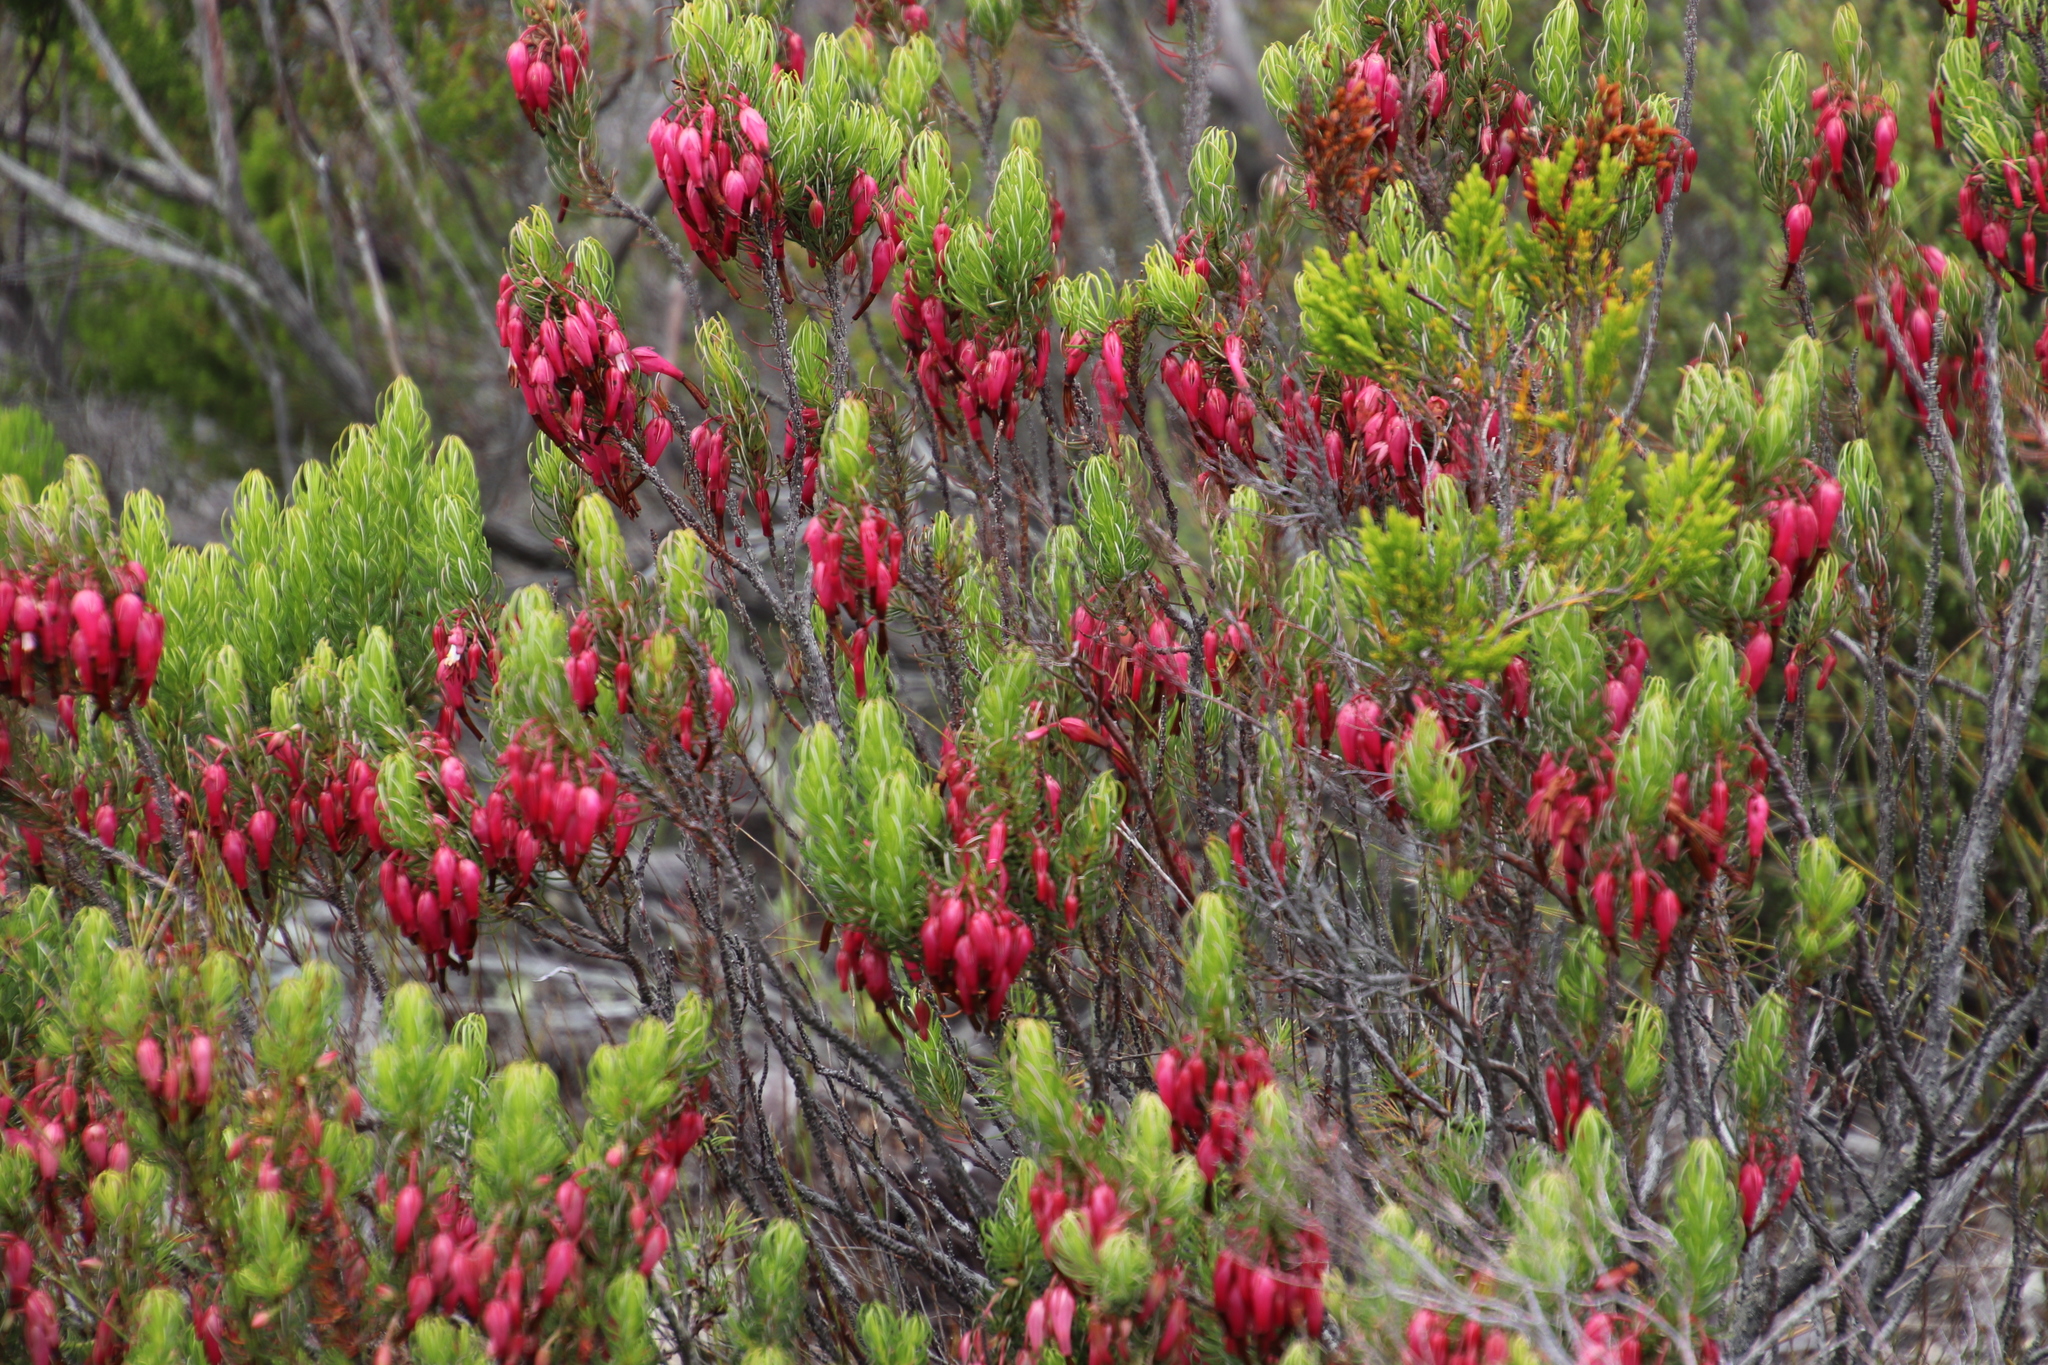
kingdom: Plantae
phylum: Tracheophyta
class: Magnoliopsida
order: Ericales
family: Ericaceae
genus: Erica
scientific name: Erica plukenetii
